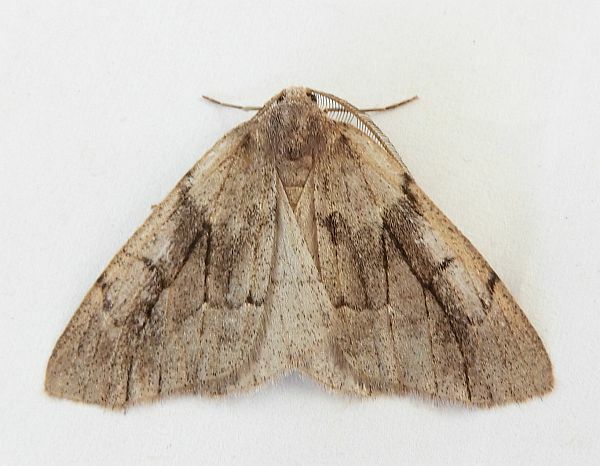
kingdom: Animalia
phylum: Arthropoda
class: Insecta
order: Lepidoptera
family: Geometridae
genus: Nepytia
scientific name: Nepytia swetti
